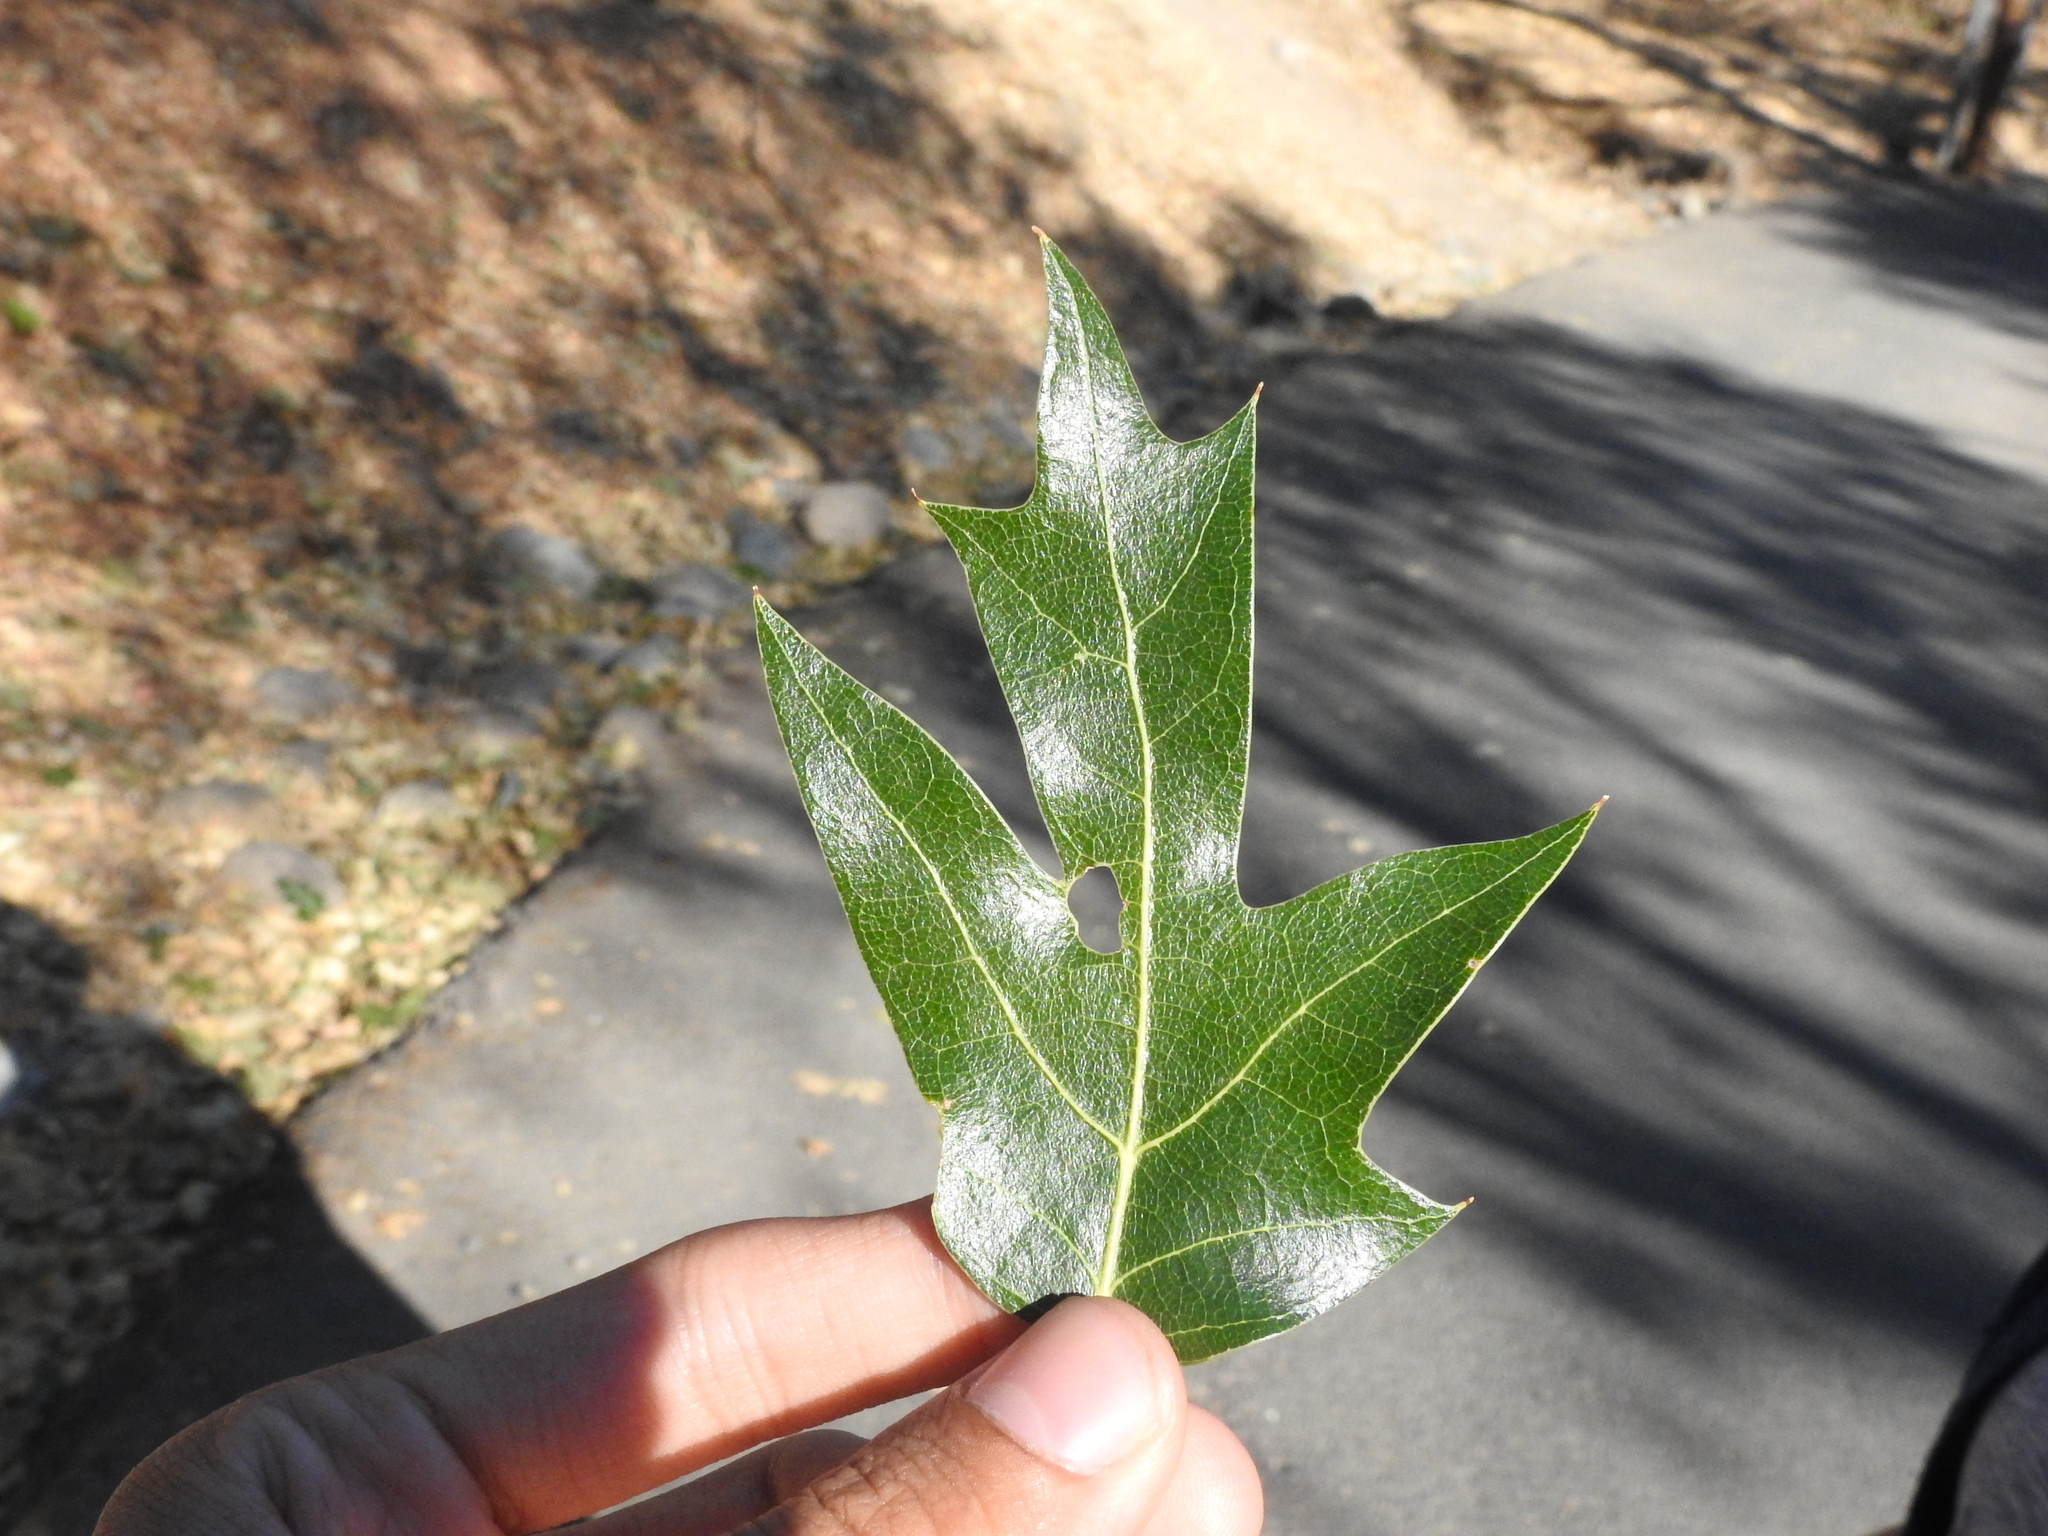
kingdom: Plantae
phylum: Tracheophyta
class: Magnoliopsida
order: Fagales
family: Fagaceae
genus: Quercus
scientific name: Quercus kelloggii
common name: California black oak
